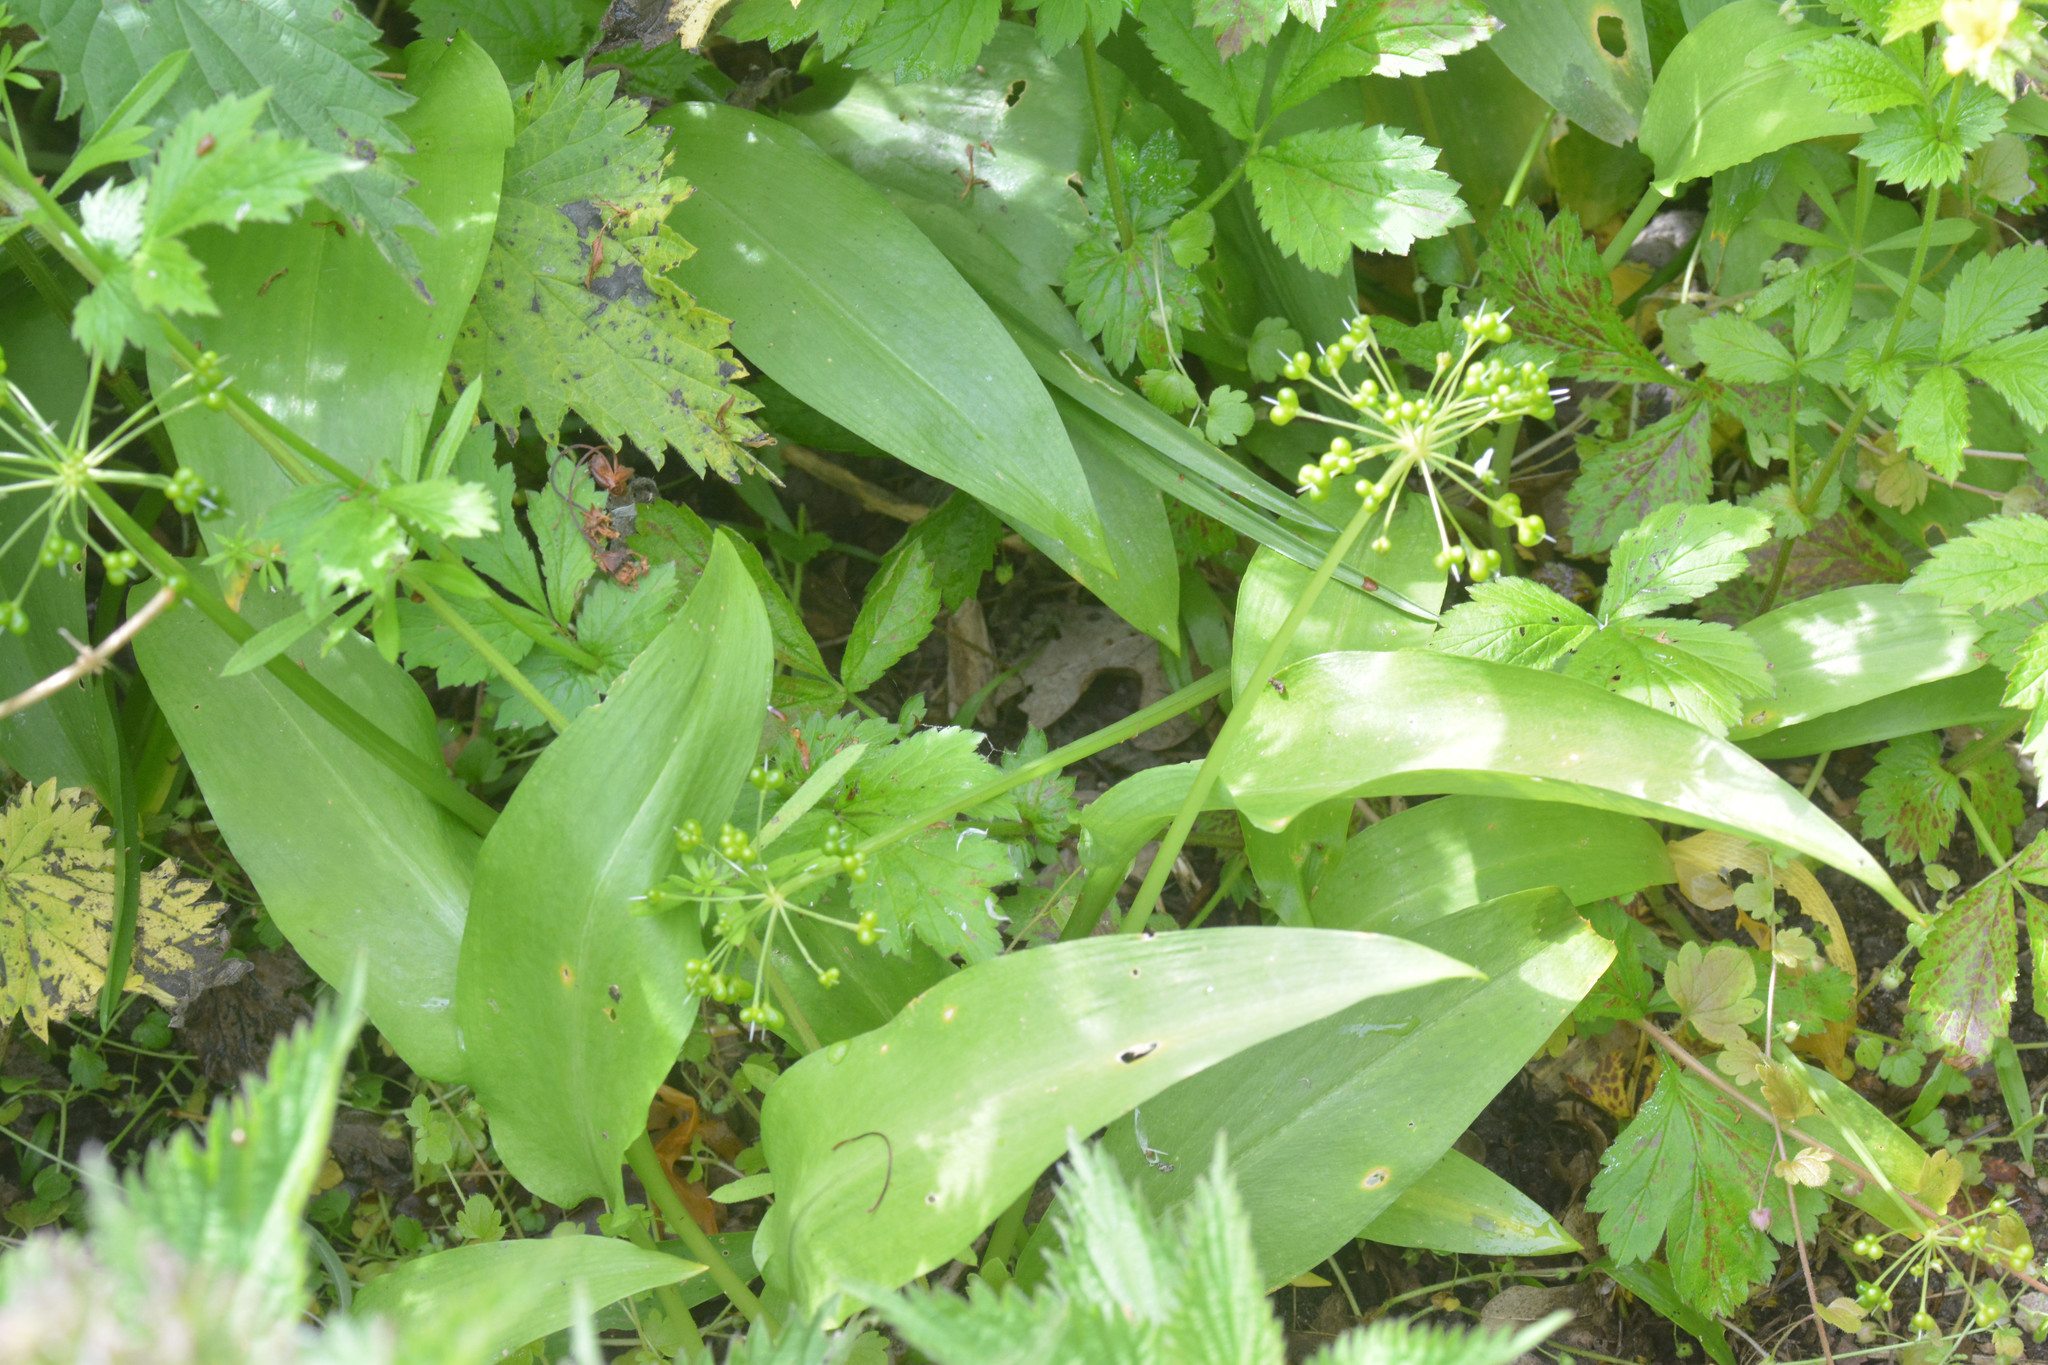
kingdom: Plantae
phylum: Tracheophyta
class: Liliopsida
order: Asparagales
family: Amaryllidaceae
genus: Allium
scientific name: Allium ursinum
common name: Ramsons
